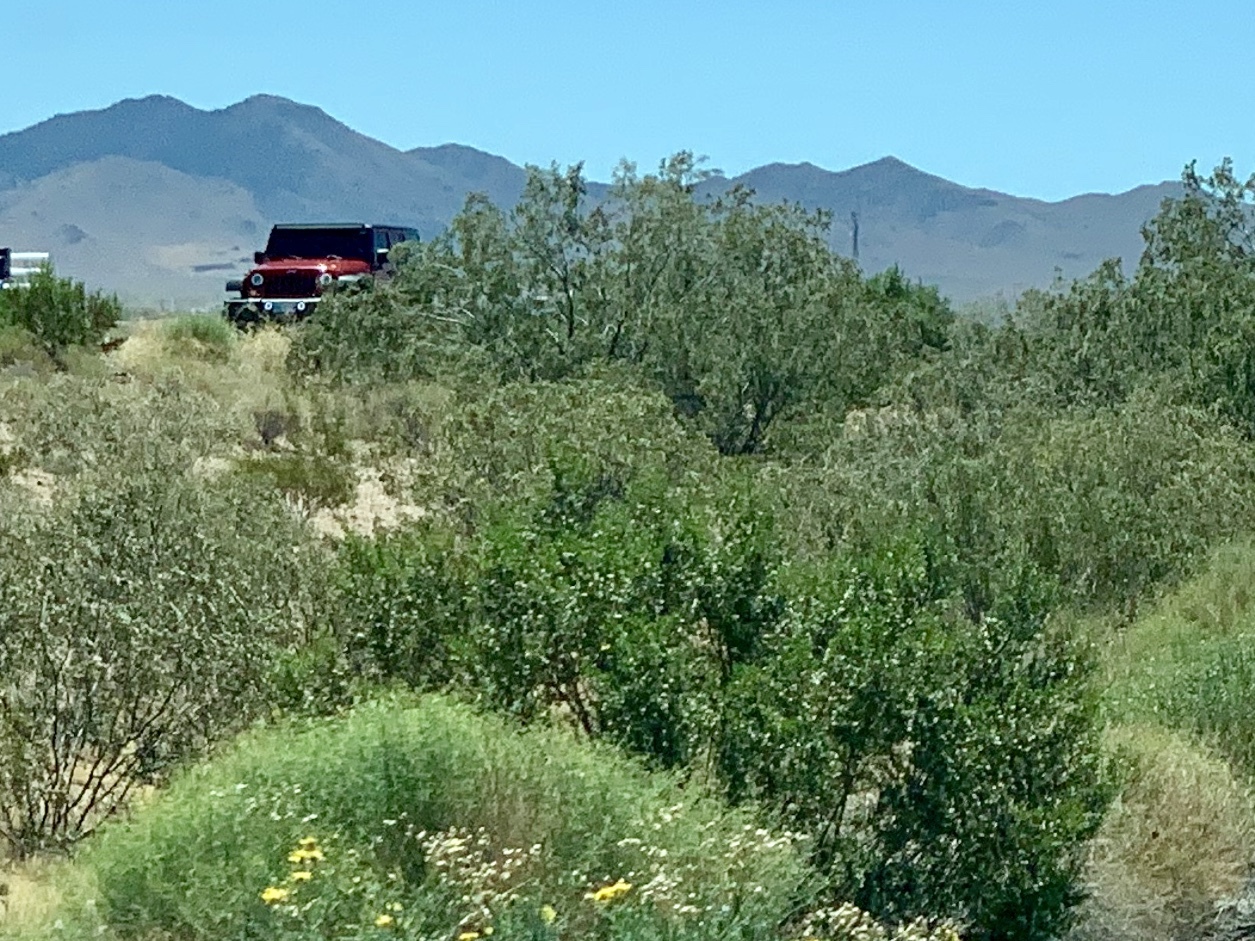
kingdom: Plantae
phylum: Tracheophyta
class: Magnoliopsida
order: Zygophyllales
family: Zygophyllaceae
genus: Larrea
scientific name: Larrea tridentata
